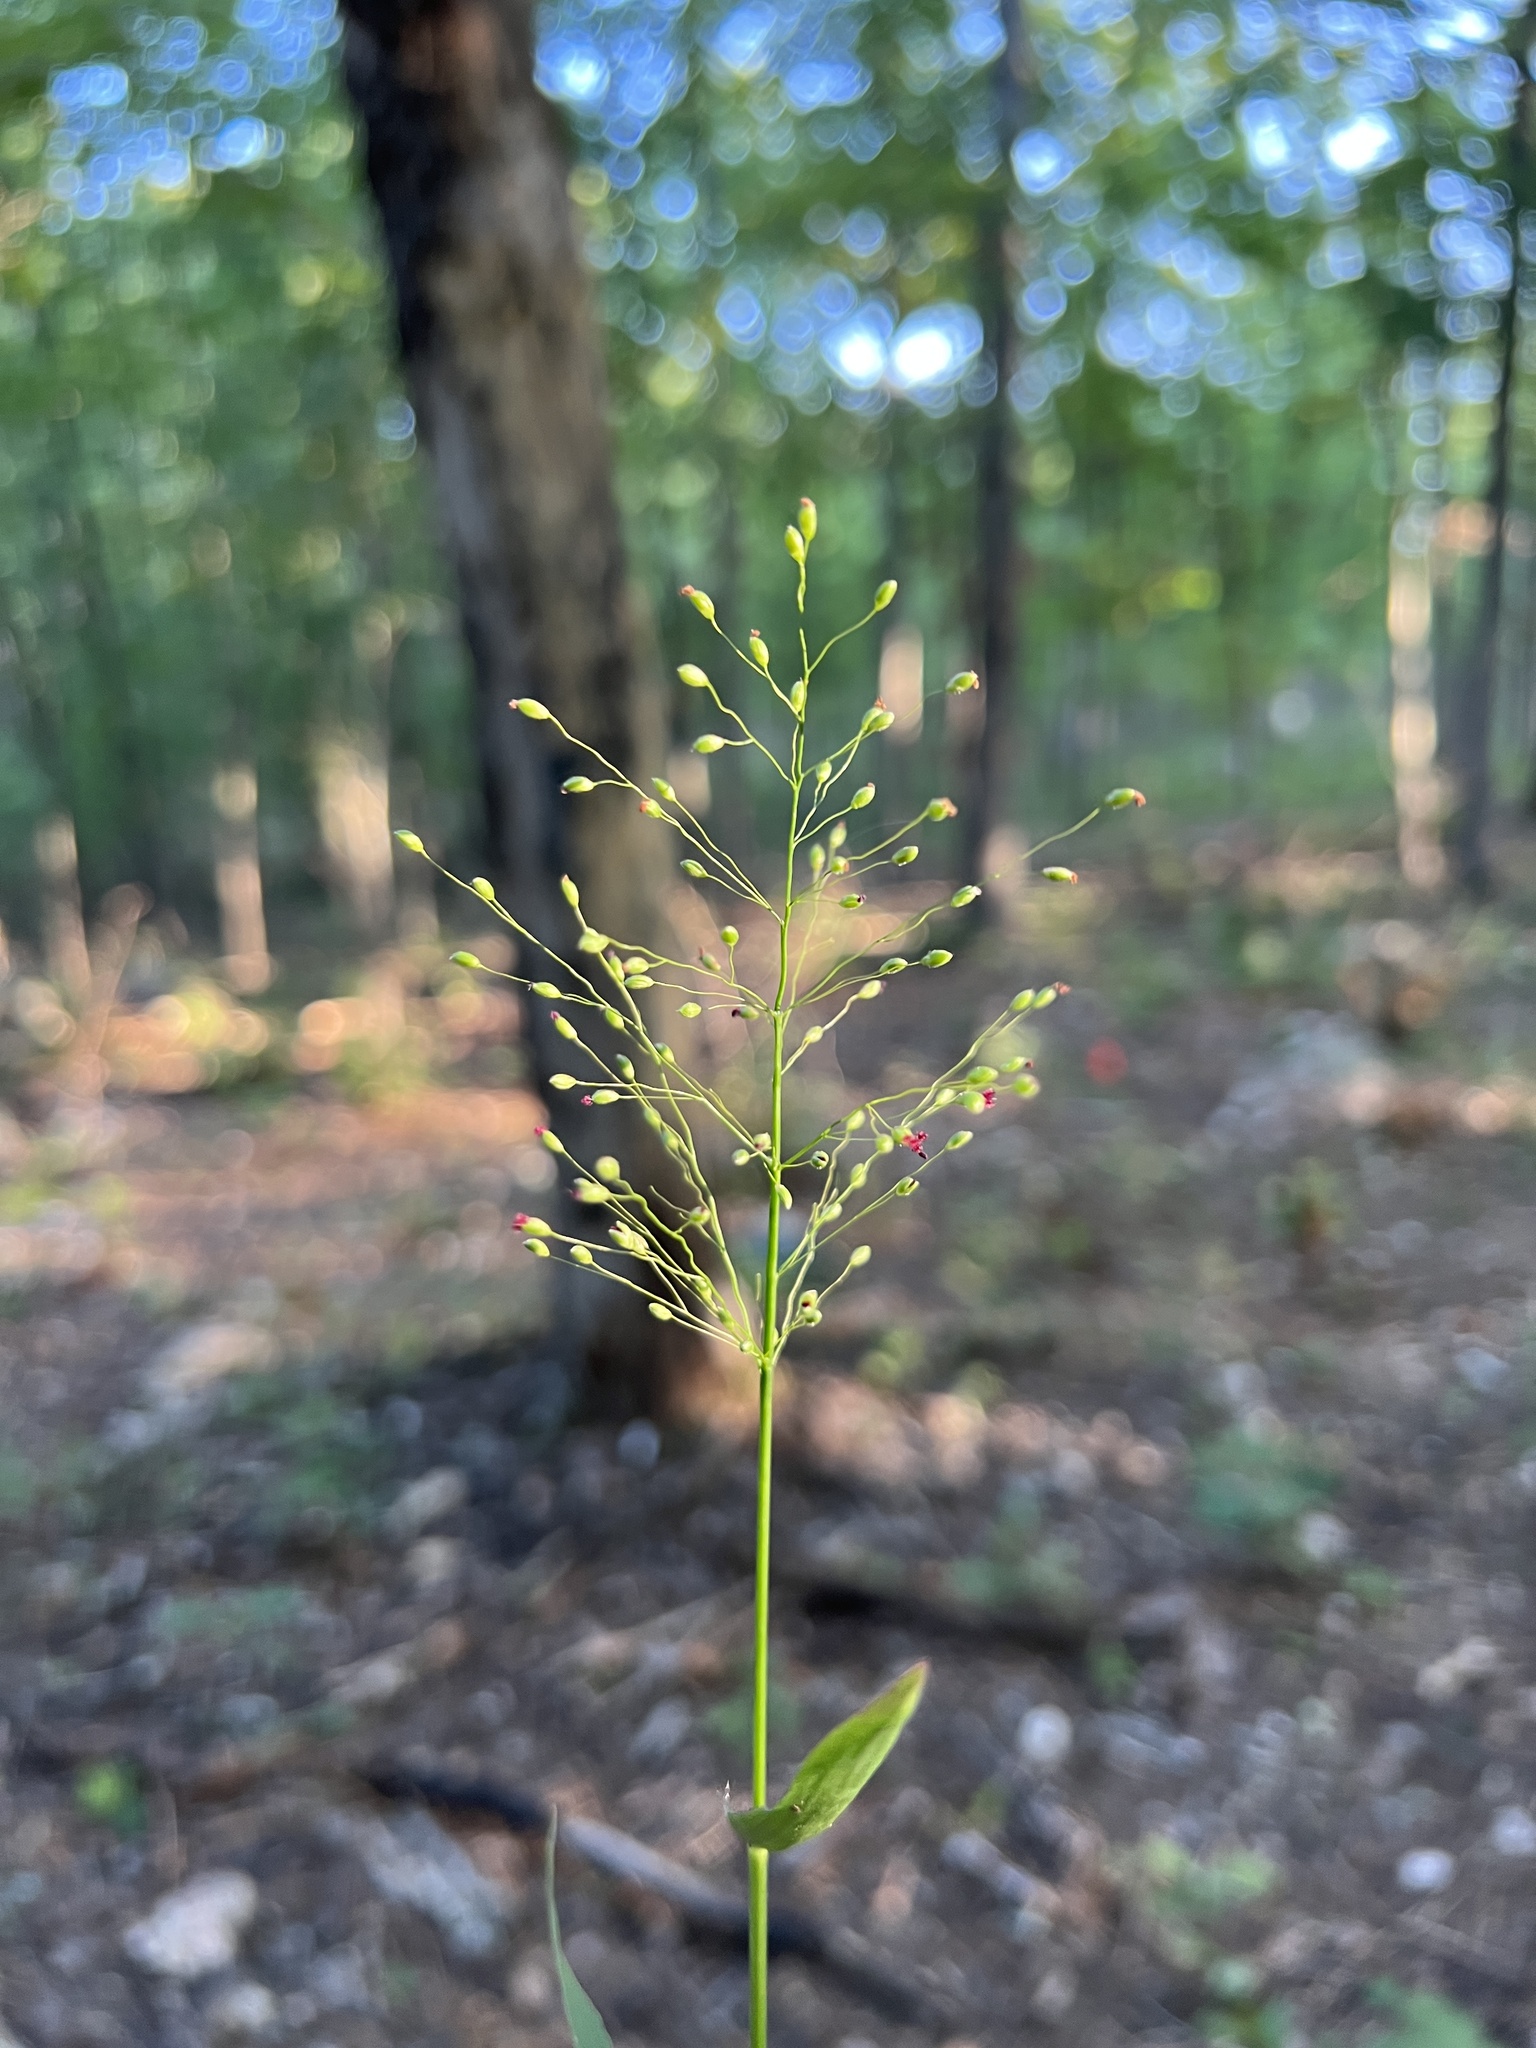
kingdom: Plantae
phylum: Tracheophyta
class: Liliopsida
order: Poales
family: Poaceae
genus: Dichanthelium
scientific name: Dichanthelium commutatum
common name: Variable witchgrass
